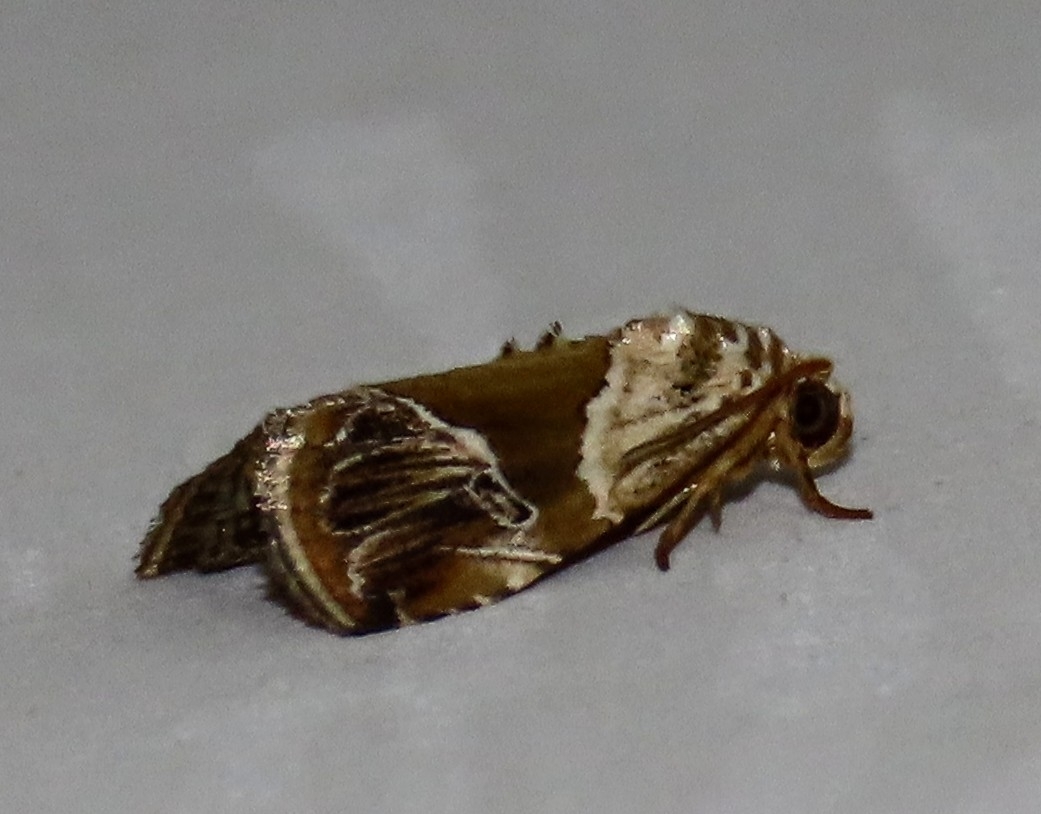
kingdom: Animalia
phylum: Arthropoda
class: Insecta
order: Lepidoptera
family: Noctuidae
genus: Maliattha
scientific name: Maliattha separata
